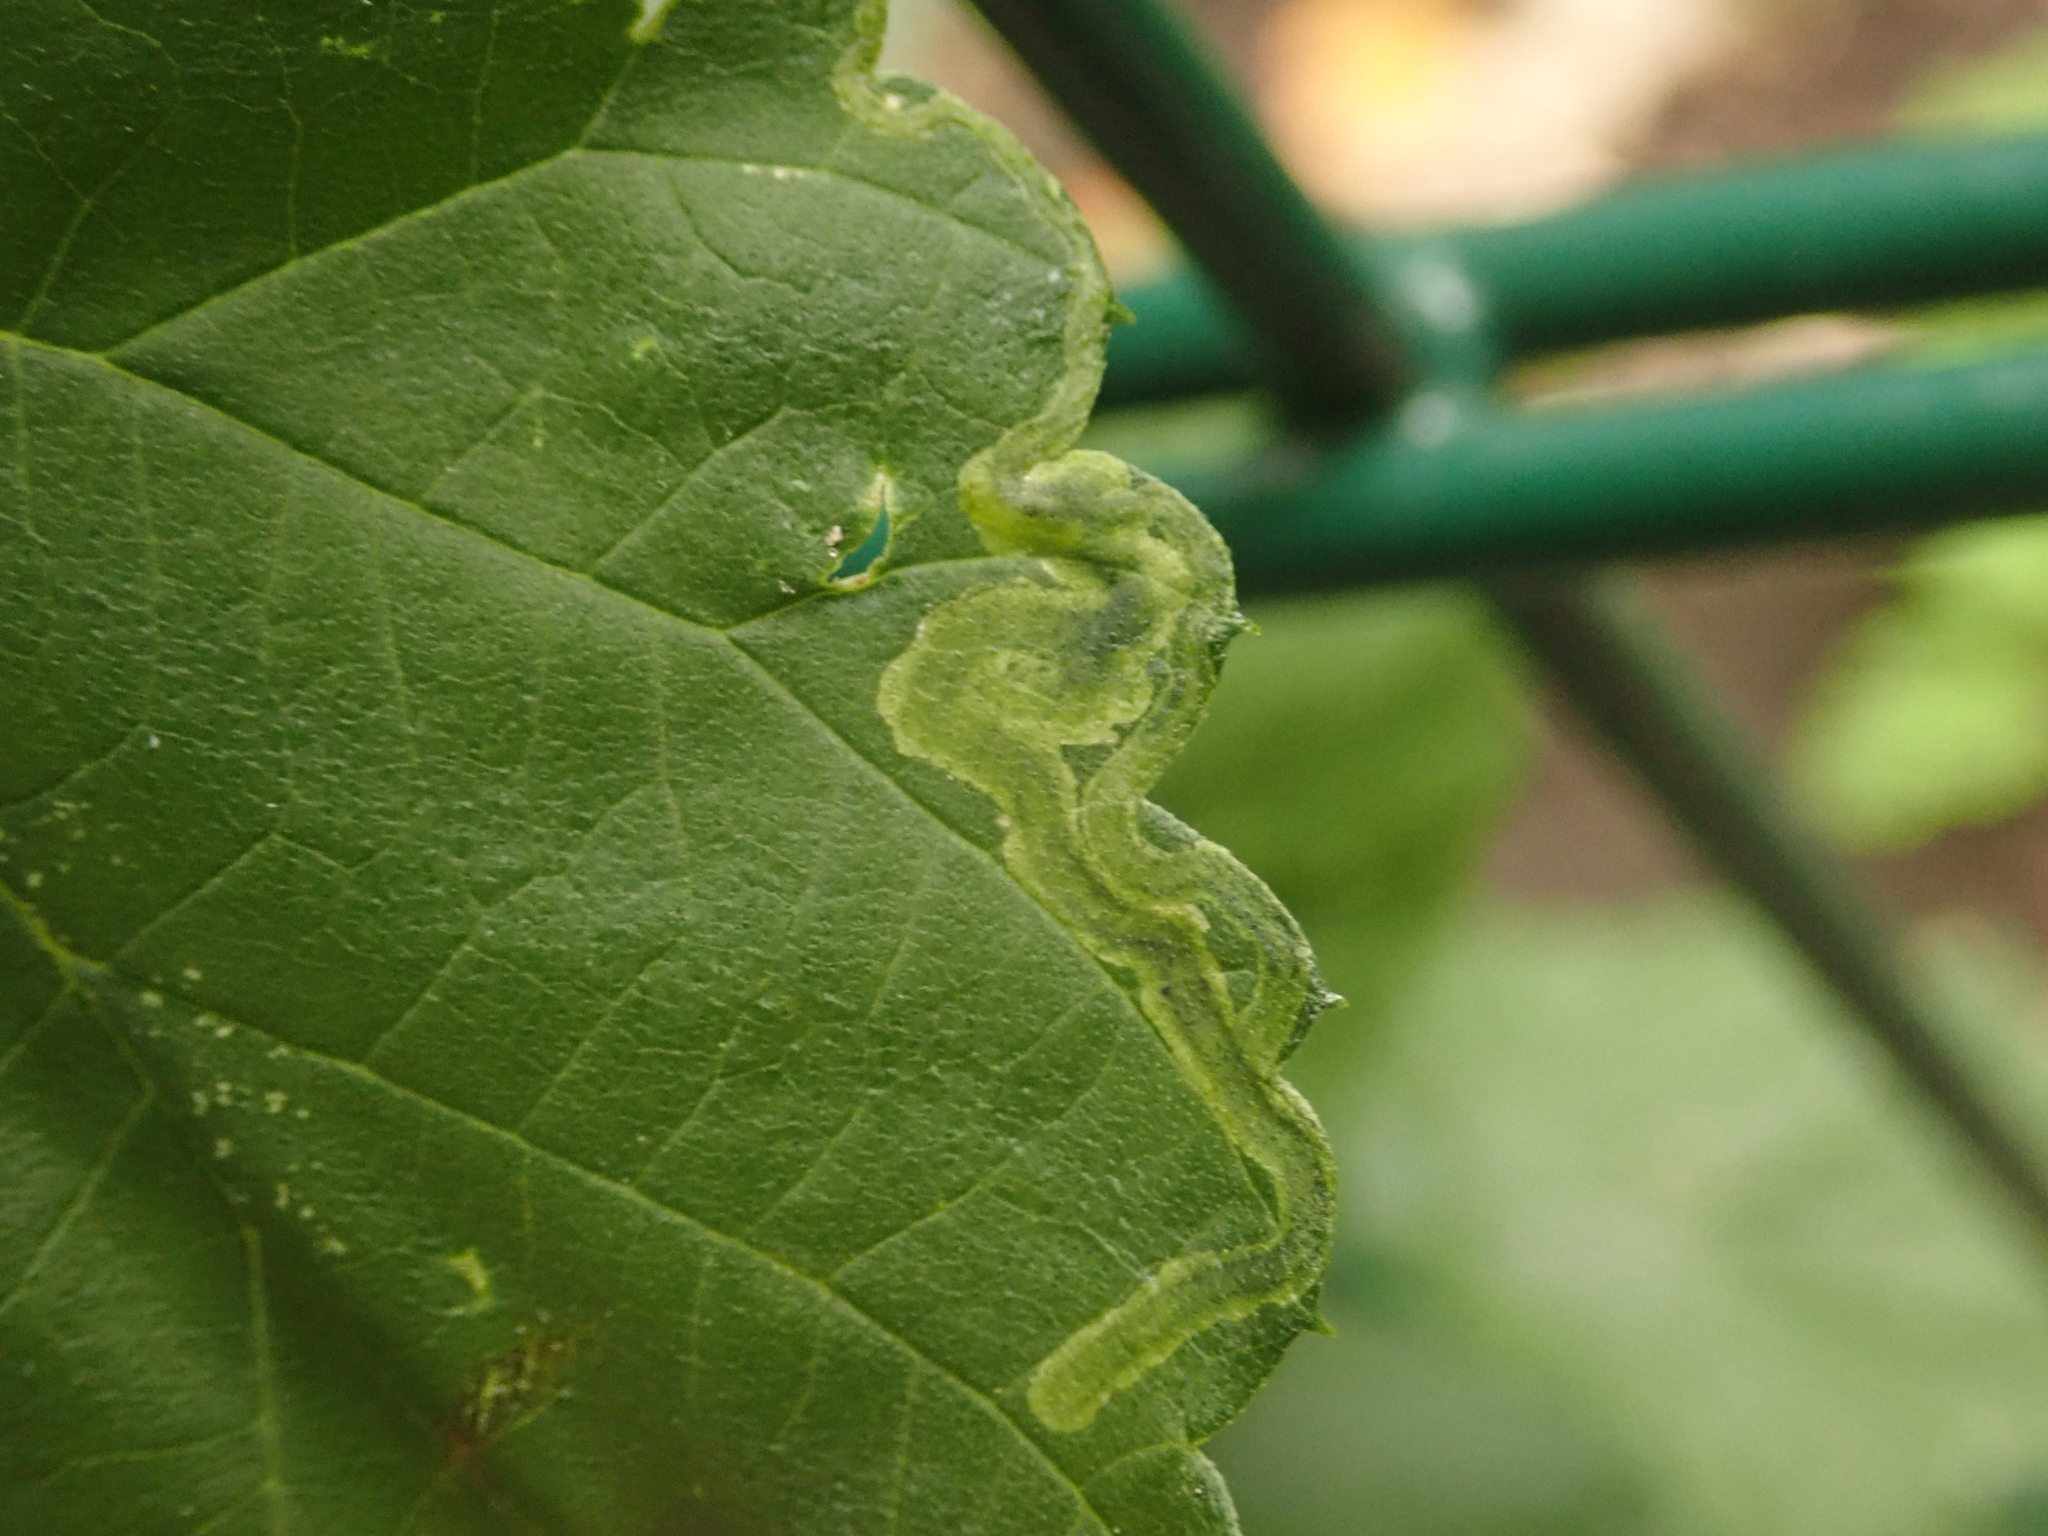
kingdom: Animalia
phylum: Arthropoda
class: Insecta
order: Diptera
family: Agromyzidae
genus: Agromyza
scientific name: Agromyza flaviceps
